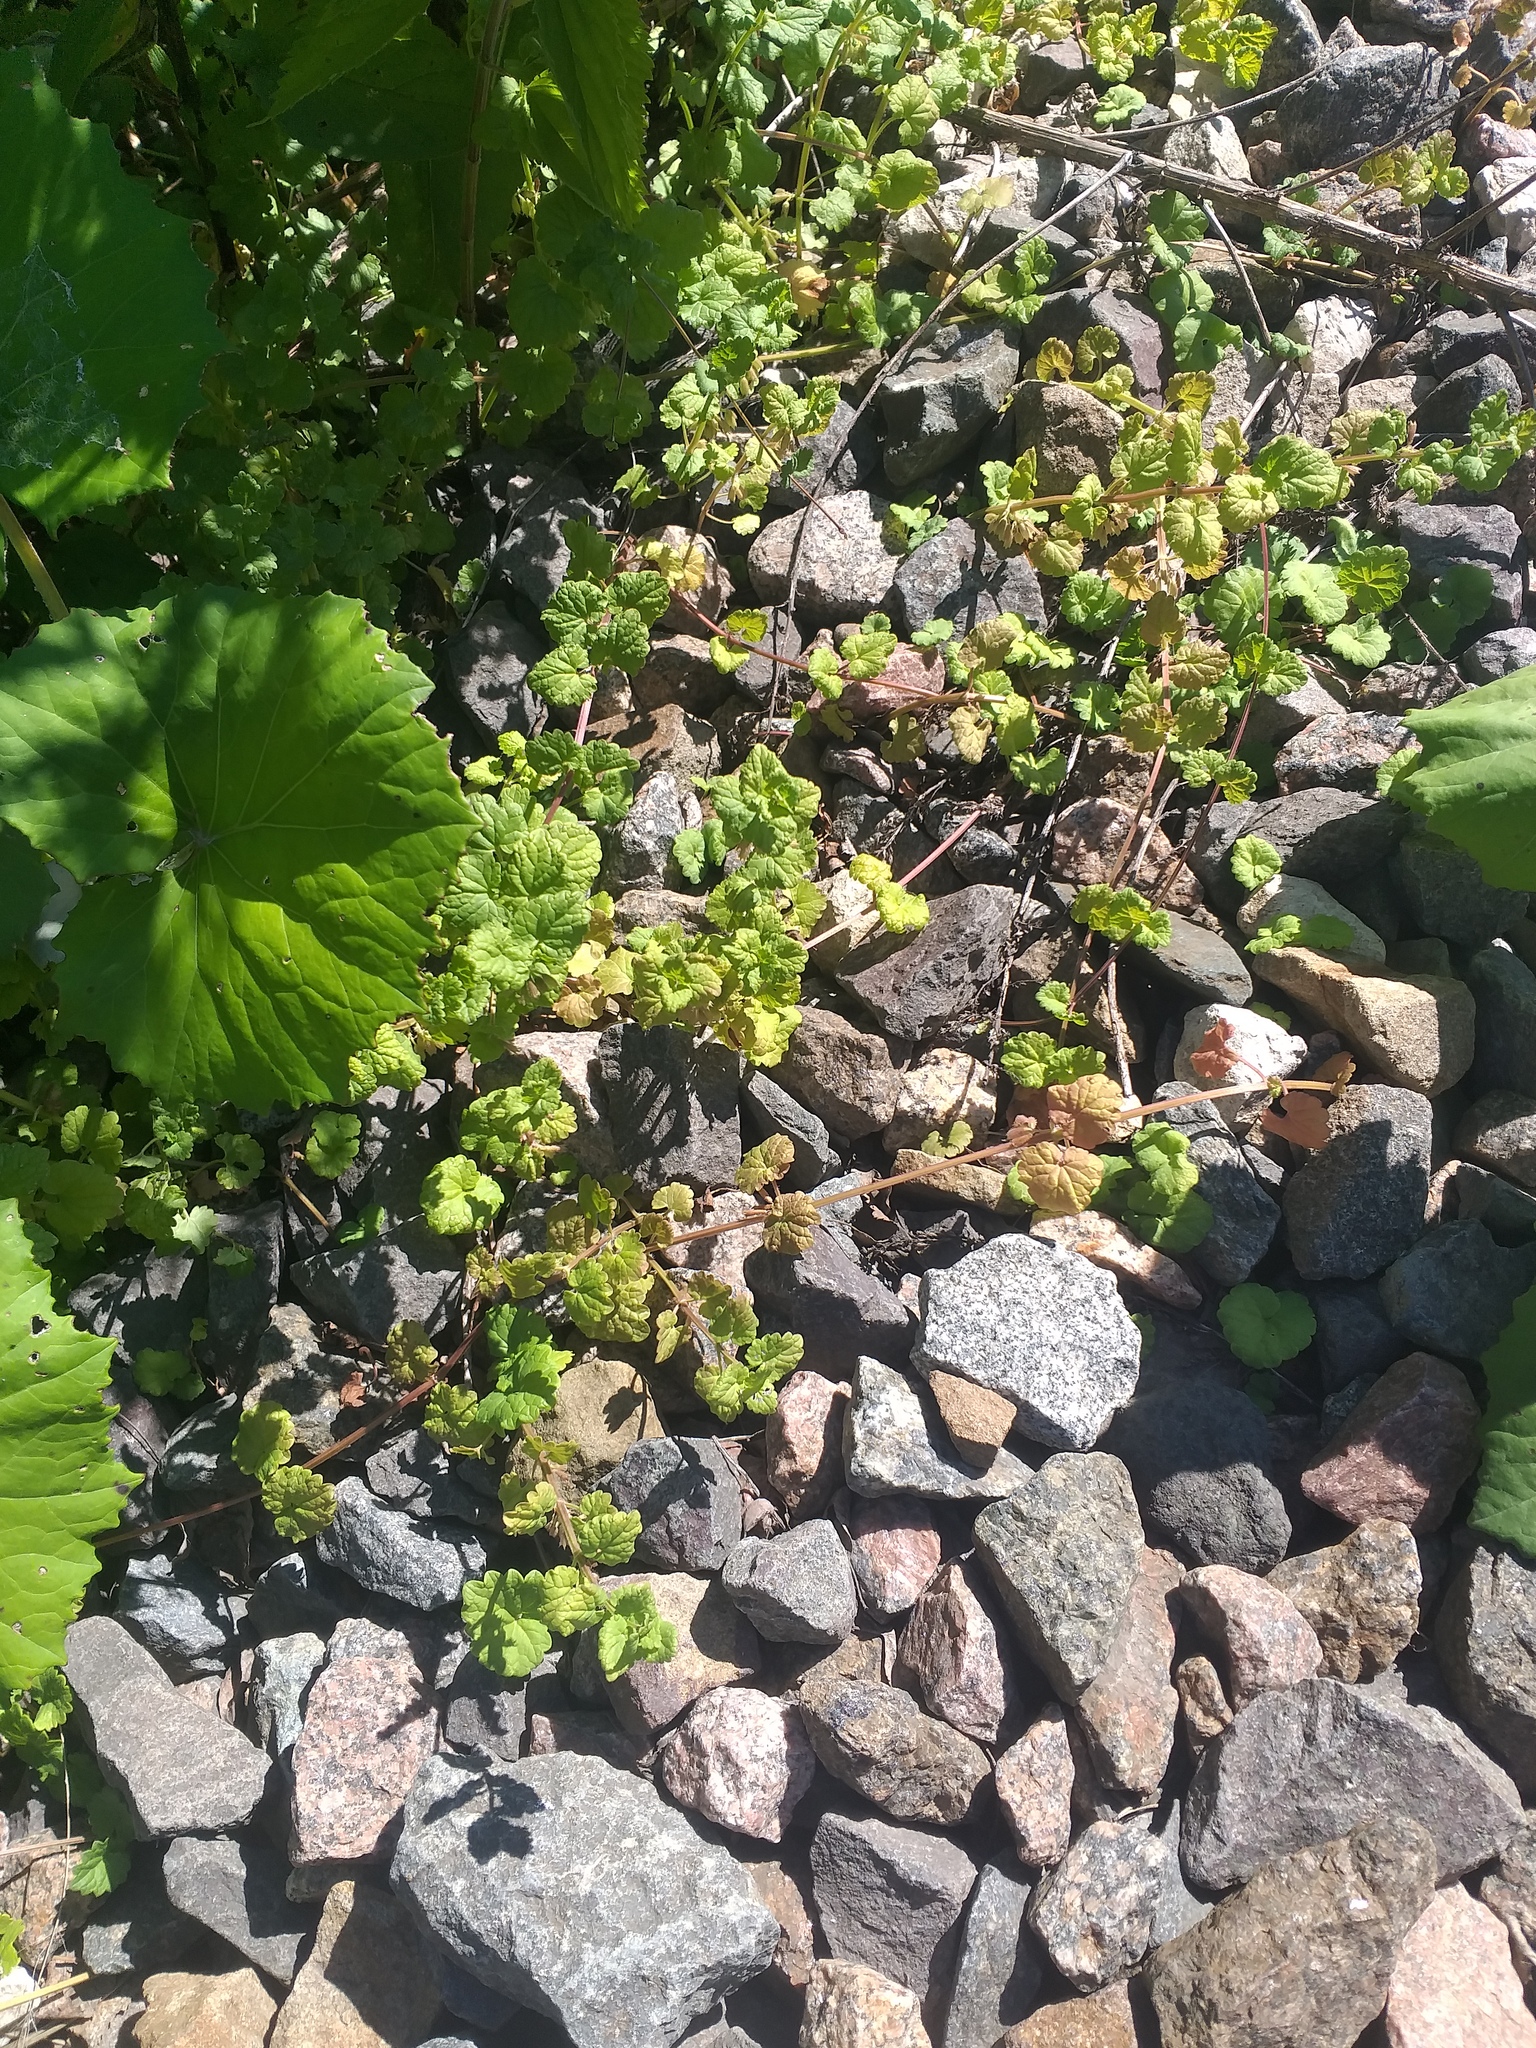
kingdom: Plantae
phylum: Tracheophyta
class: Magnoliopsida
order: Lamiales
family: Lamiaceae
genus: Glechoma
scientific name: Glechoma hederacea
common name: Ground ivy
